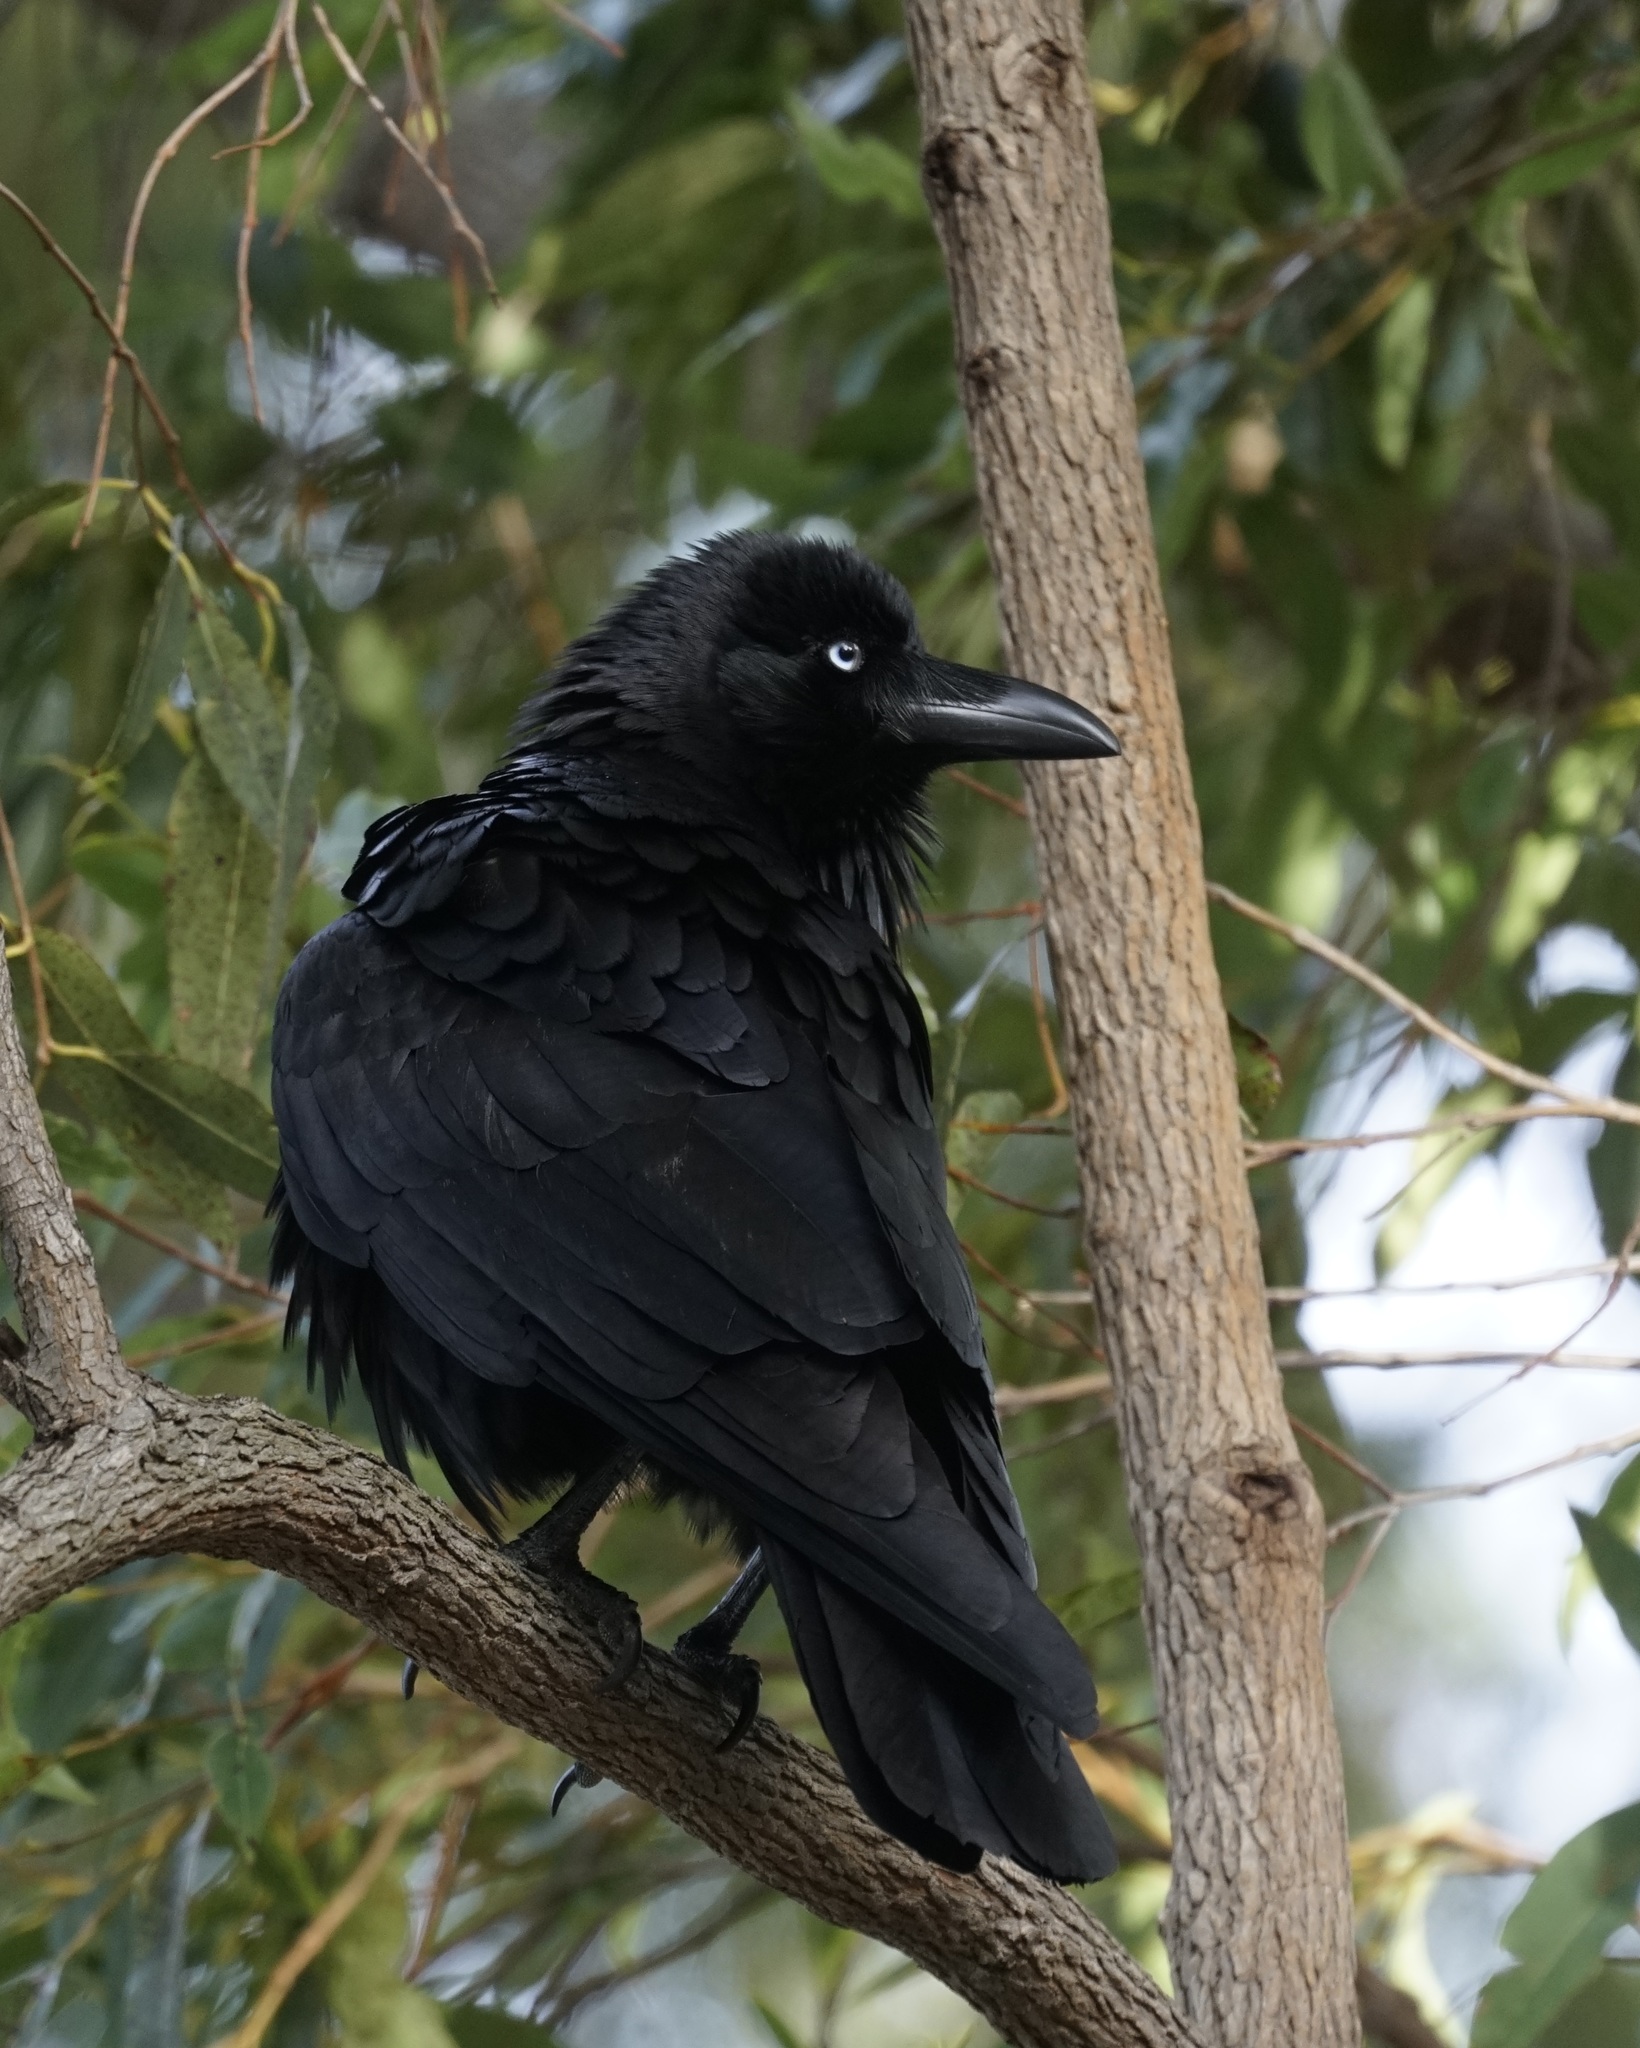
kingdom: Animalia
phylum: Chordata
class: Aves
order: Passeriformes
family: Corvidae
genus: Corvus
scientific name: Corvus coronoides
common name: Australian raven
